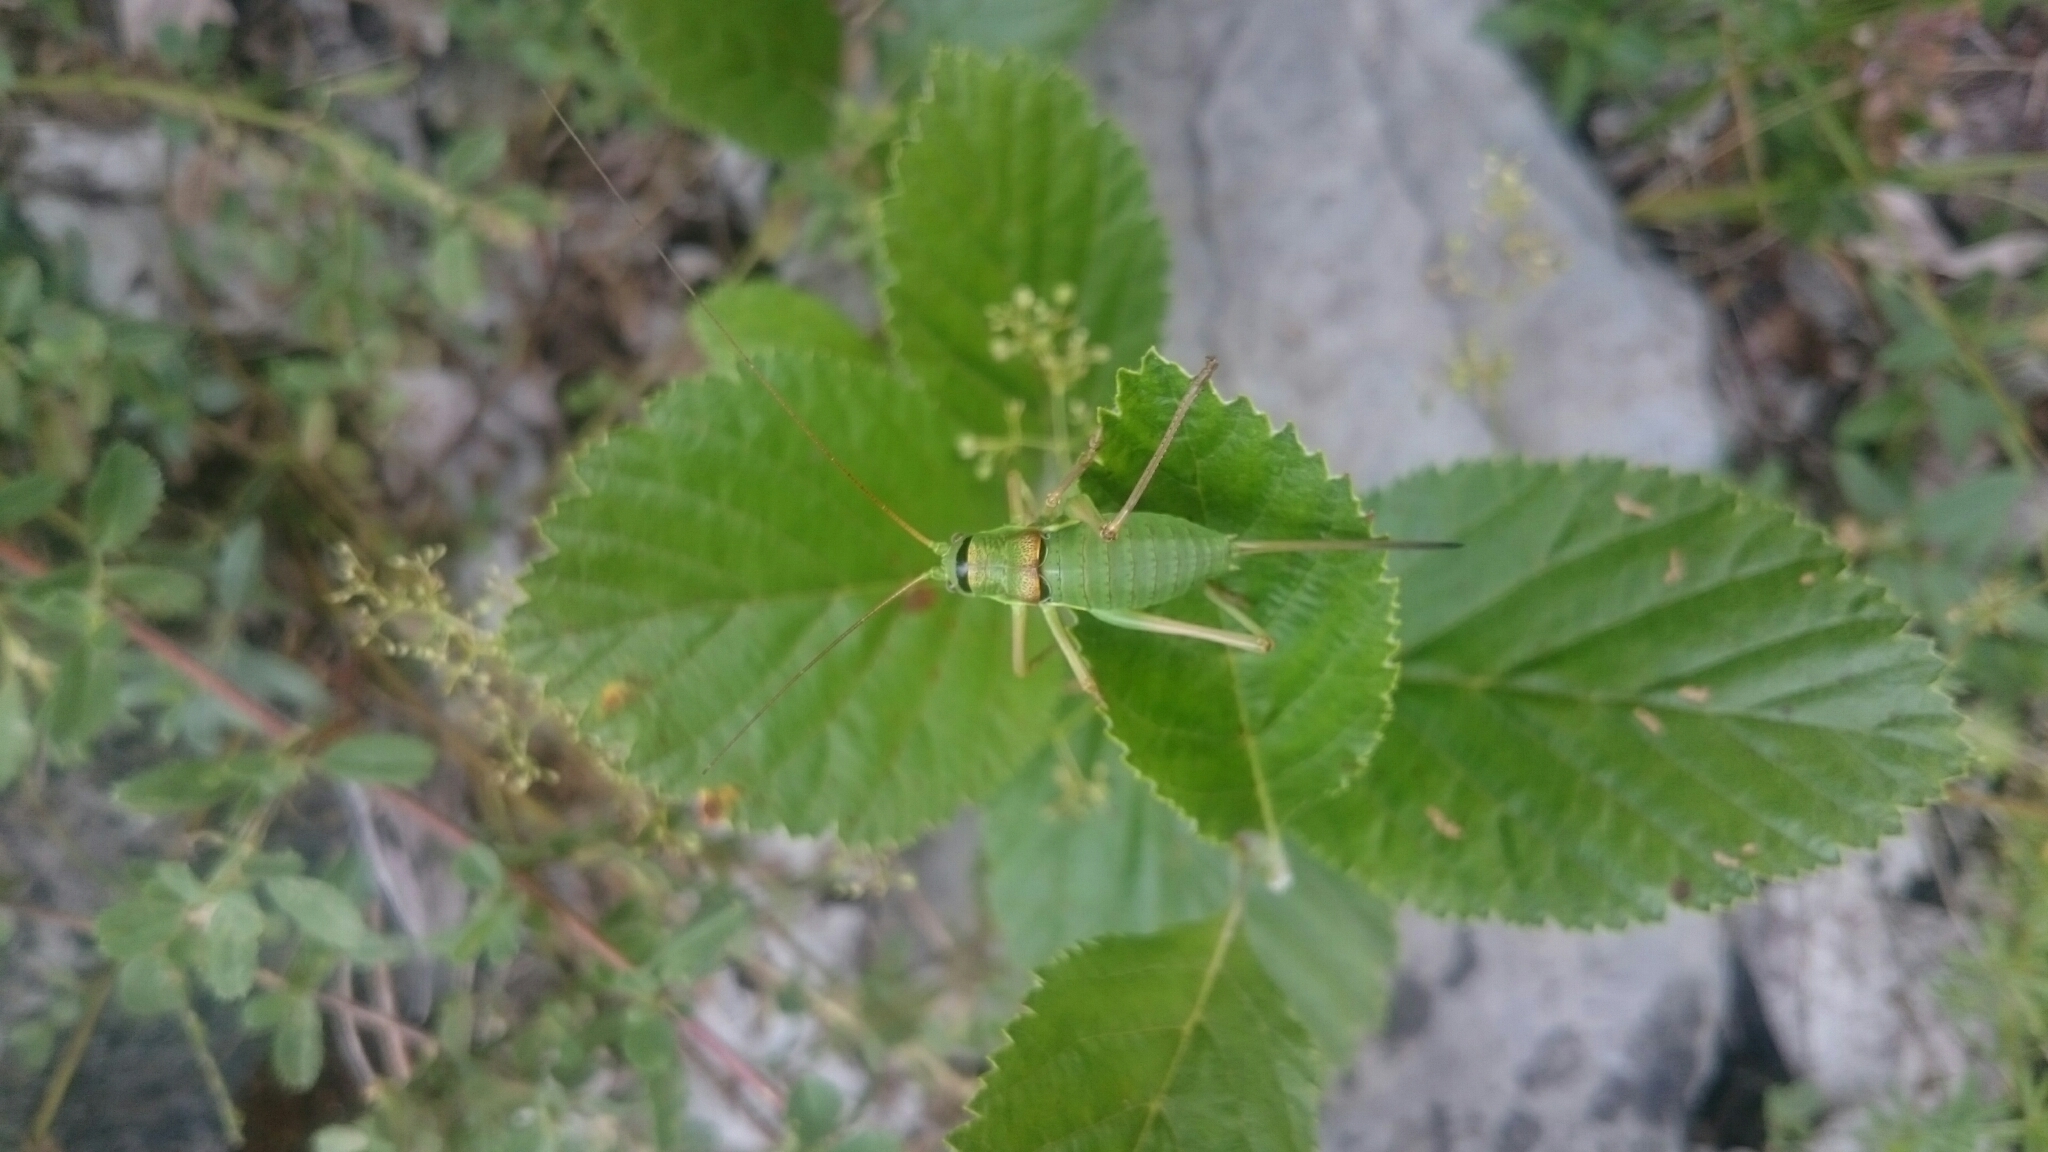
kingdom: Animalia
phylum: Arthropoda
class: Insecta
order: Orthoptera
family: Tettigoniidae
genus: Ephippiger
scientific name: Ephippiger diurnus
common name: Western saddle bush-cricket
